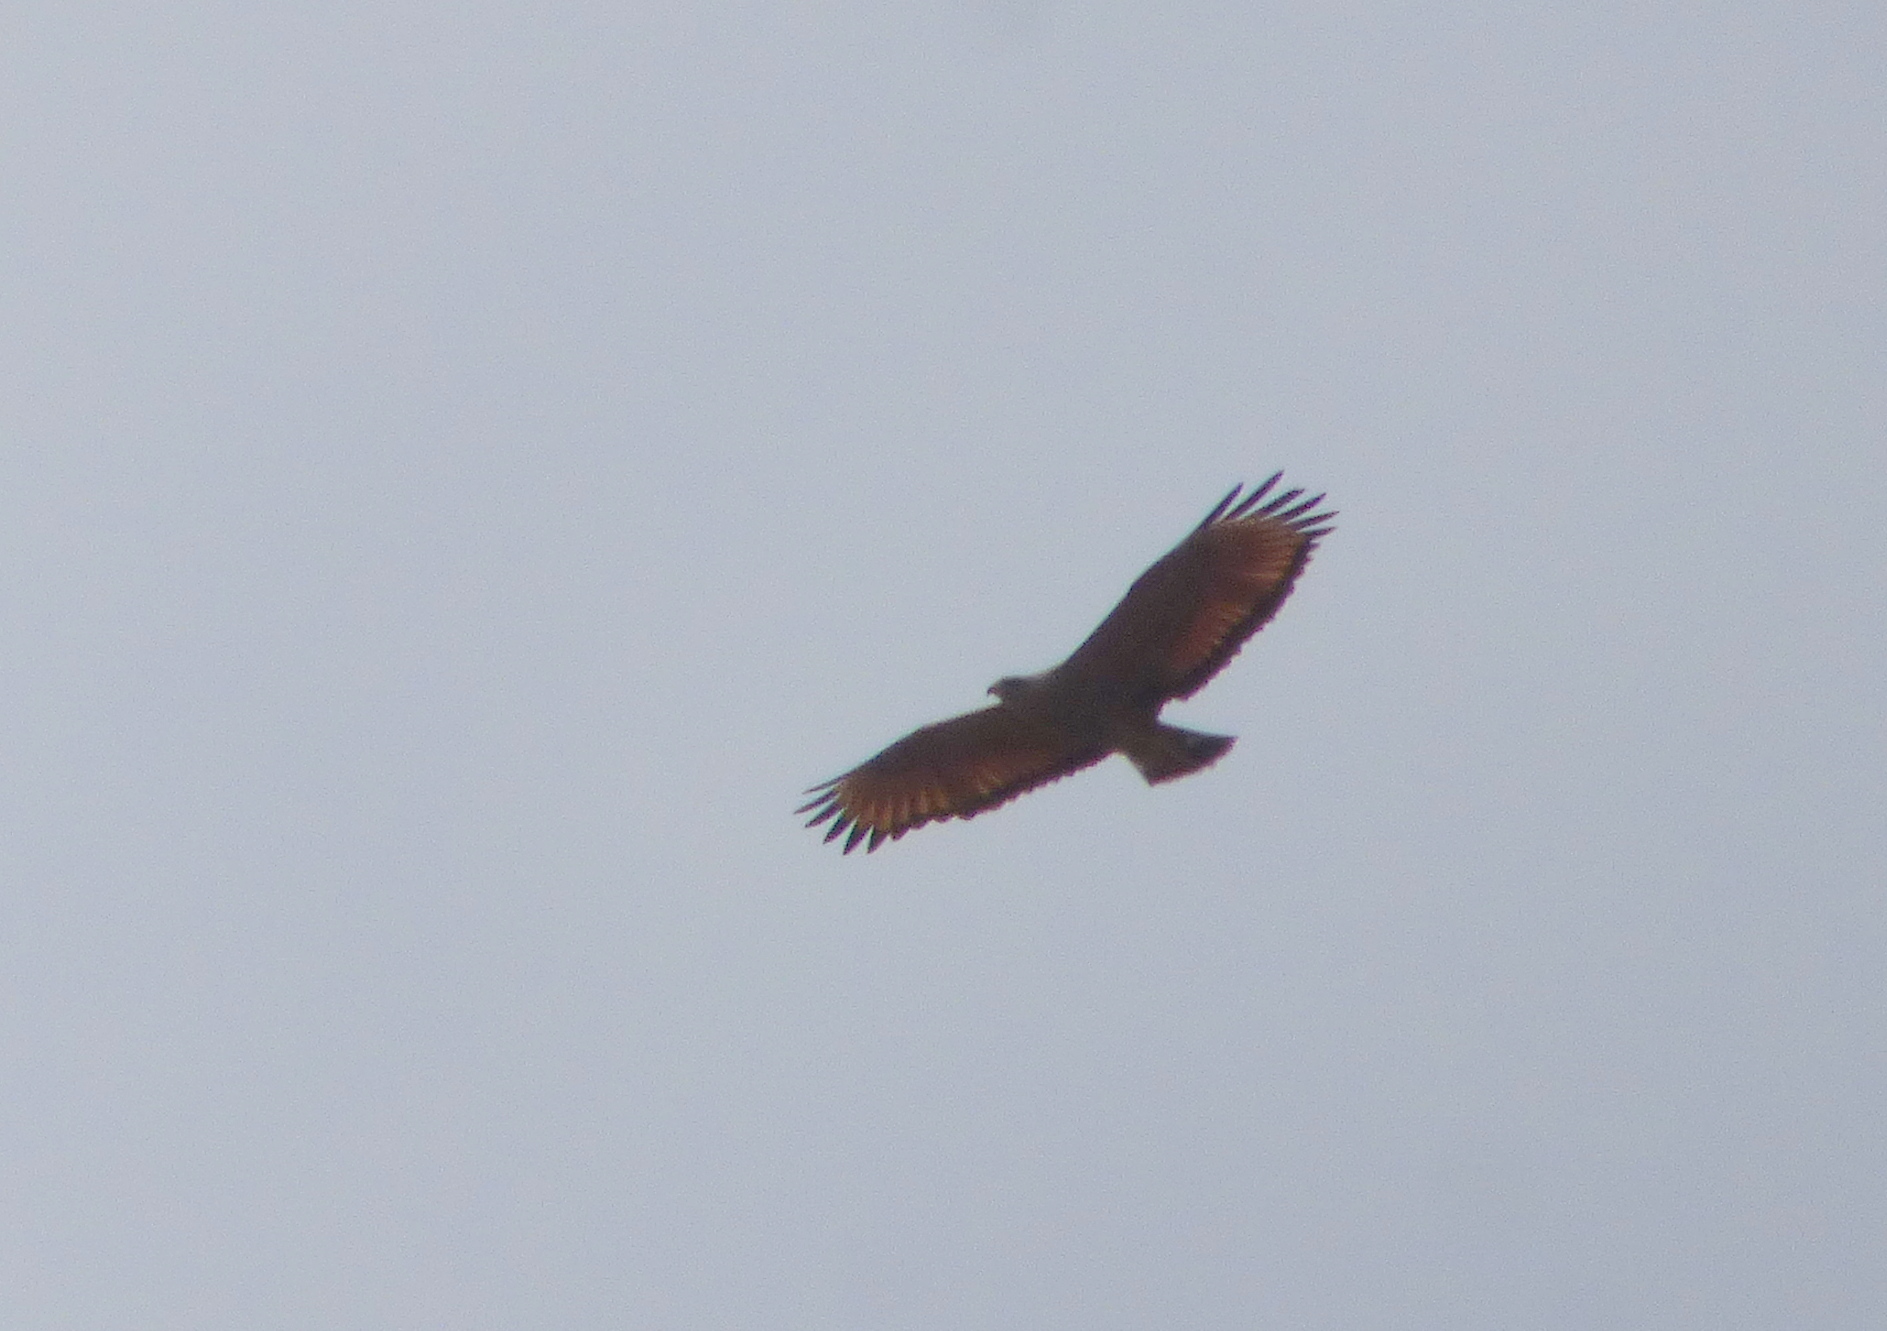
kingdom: Animalia
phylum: Chordata
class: Aves
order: Accipitriformes
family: Accipitridae
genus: Buteogallus
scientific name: Buteogallus meridionalis
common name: Savanna hawk
